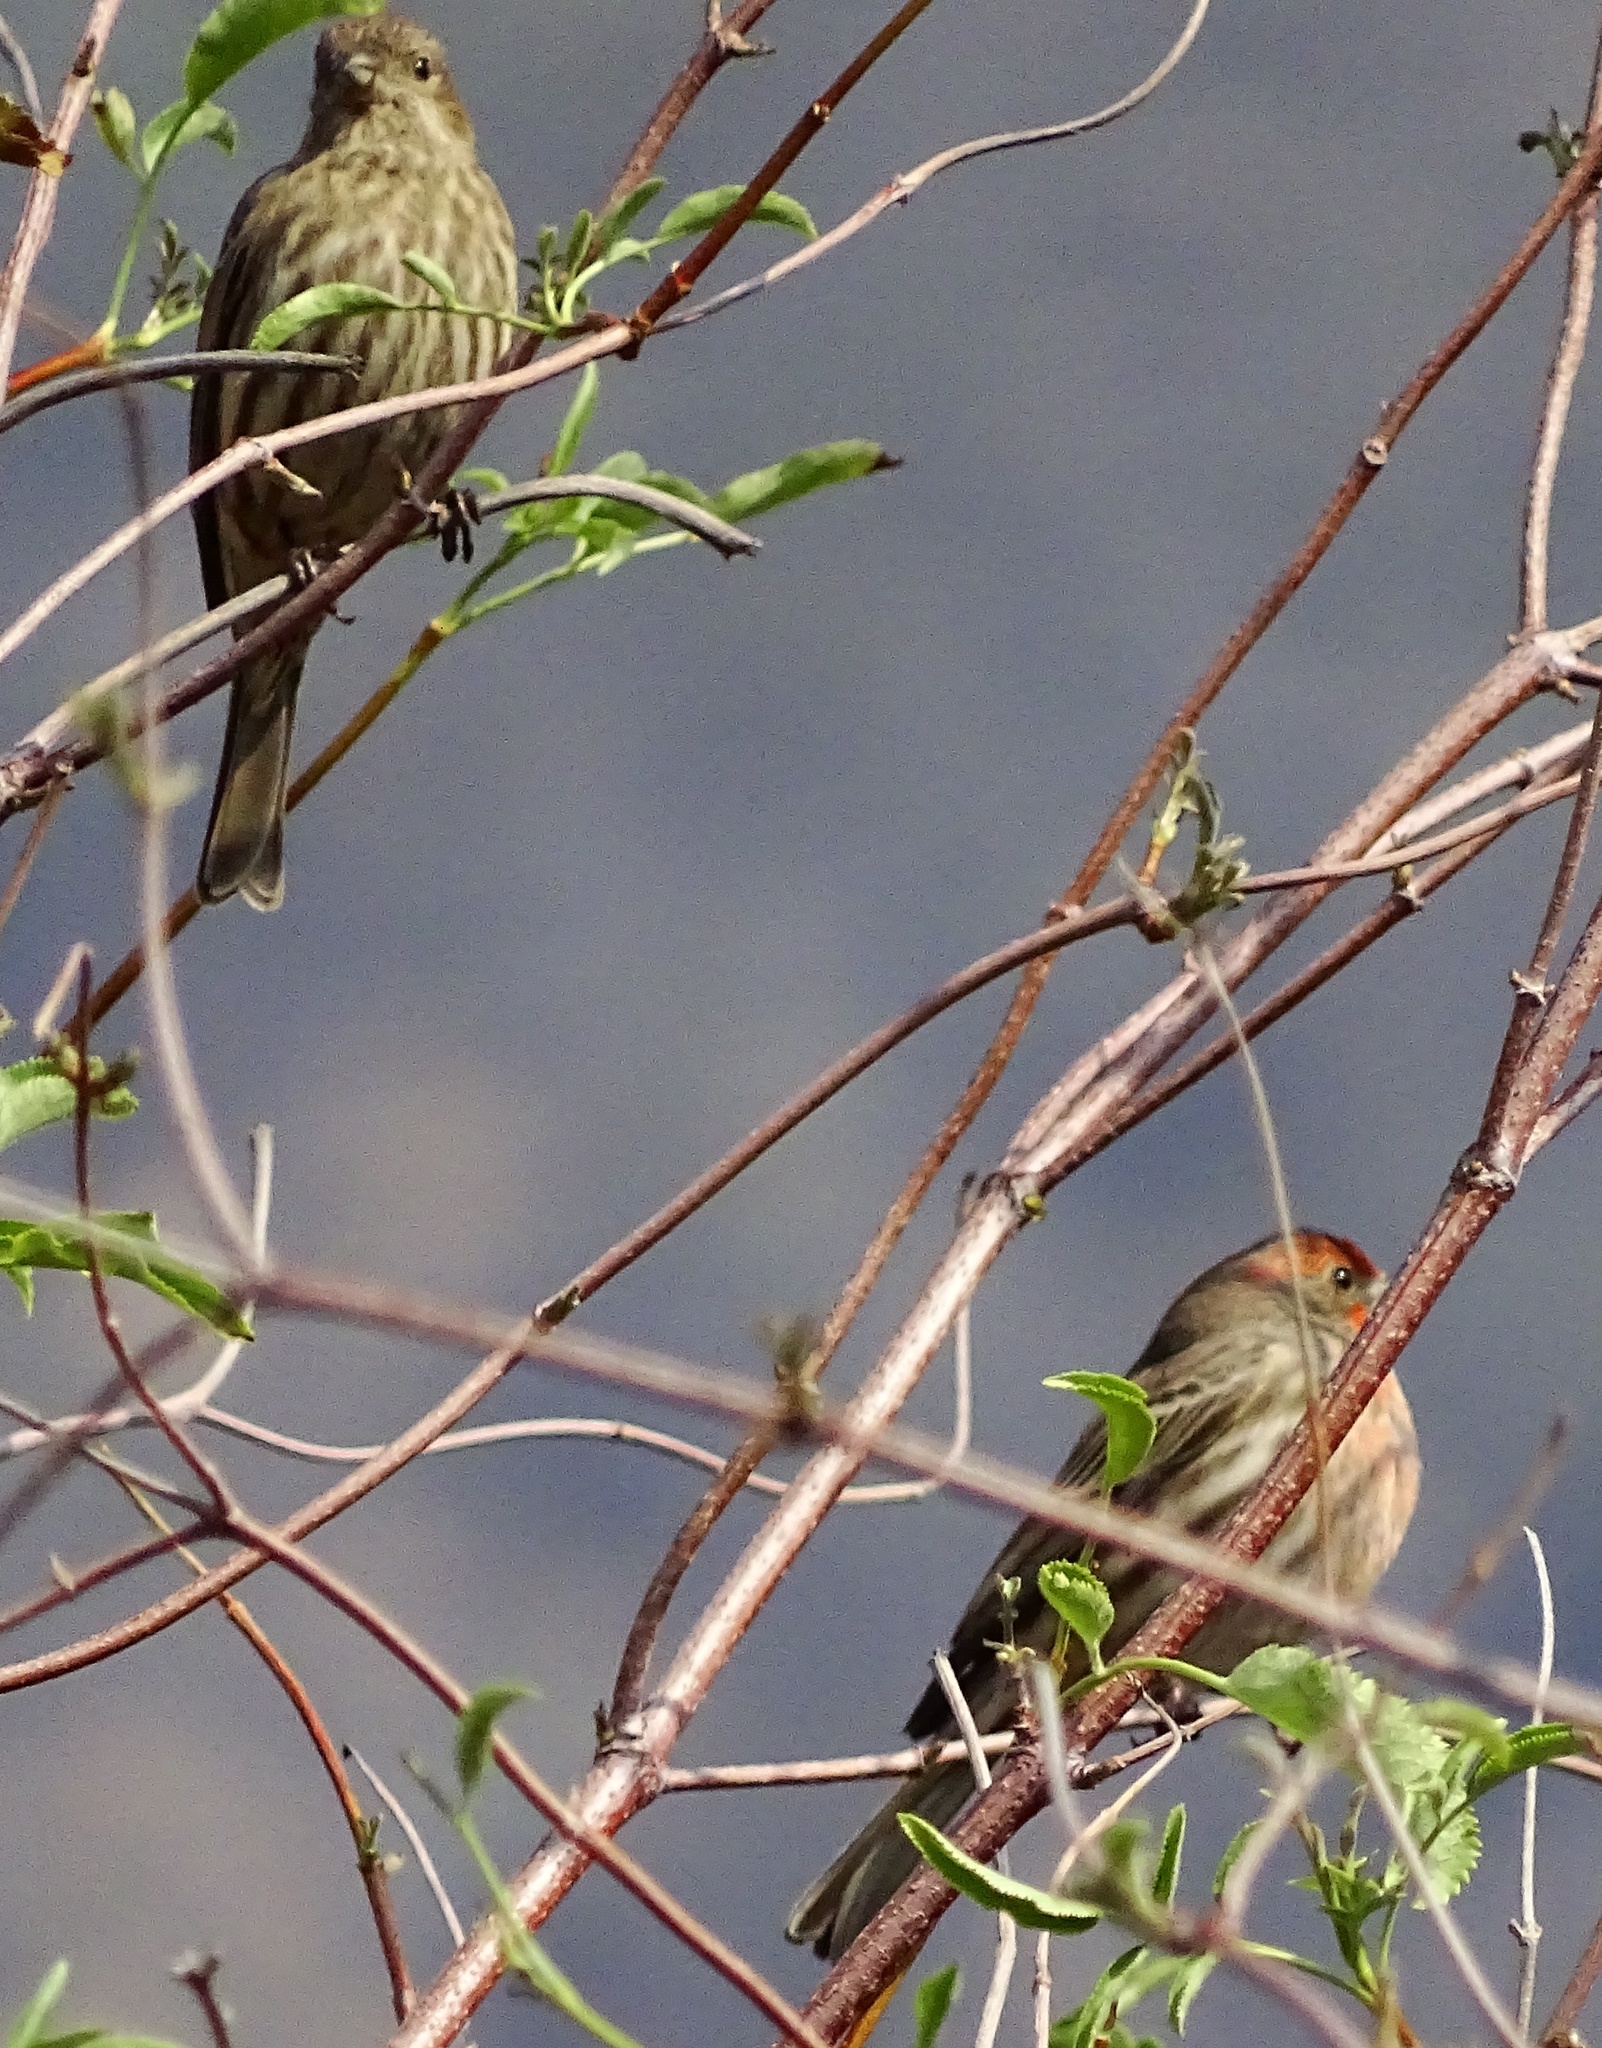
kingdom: Animalia
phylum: Chordata
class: Aves
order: Passeriformes
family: Fringillidae
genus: Haemorhous
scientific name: Haemorhous mexicanus
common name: House finch
